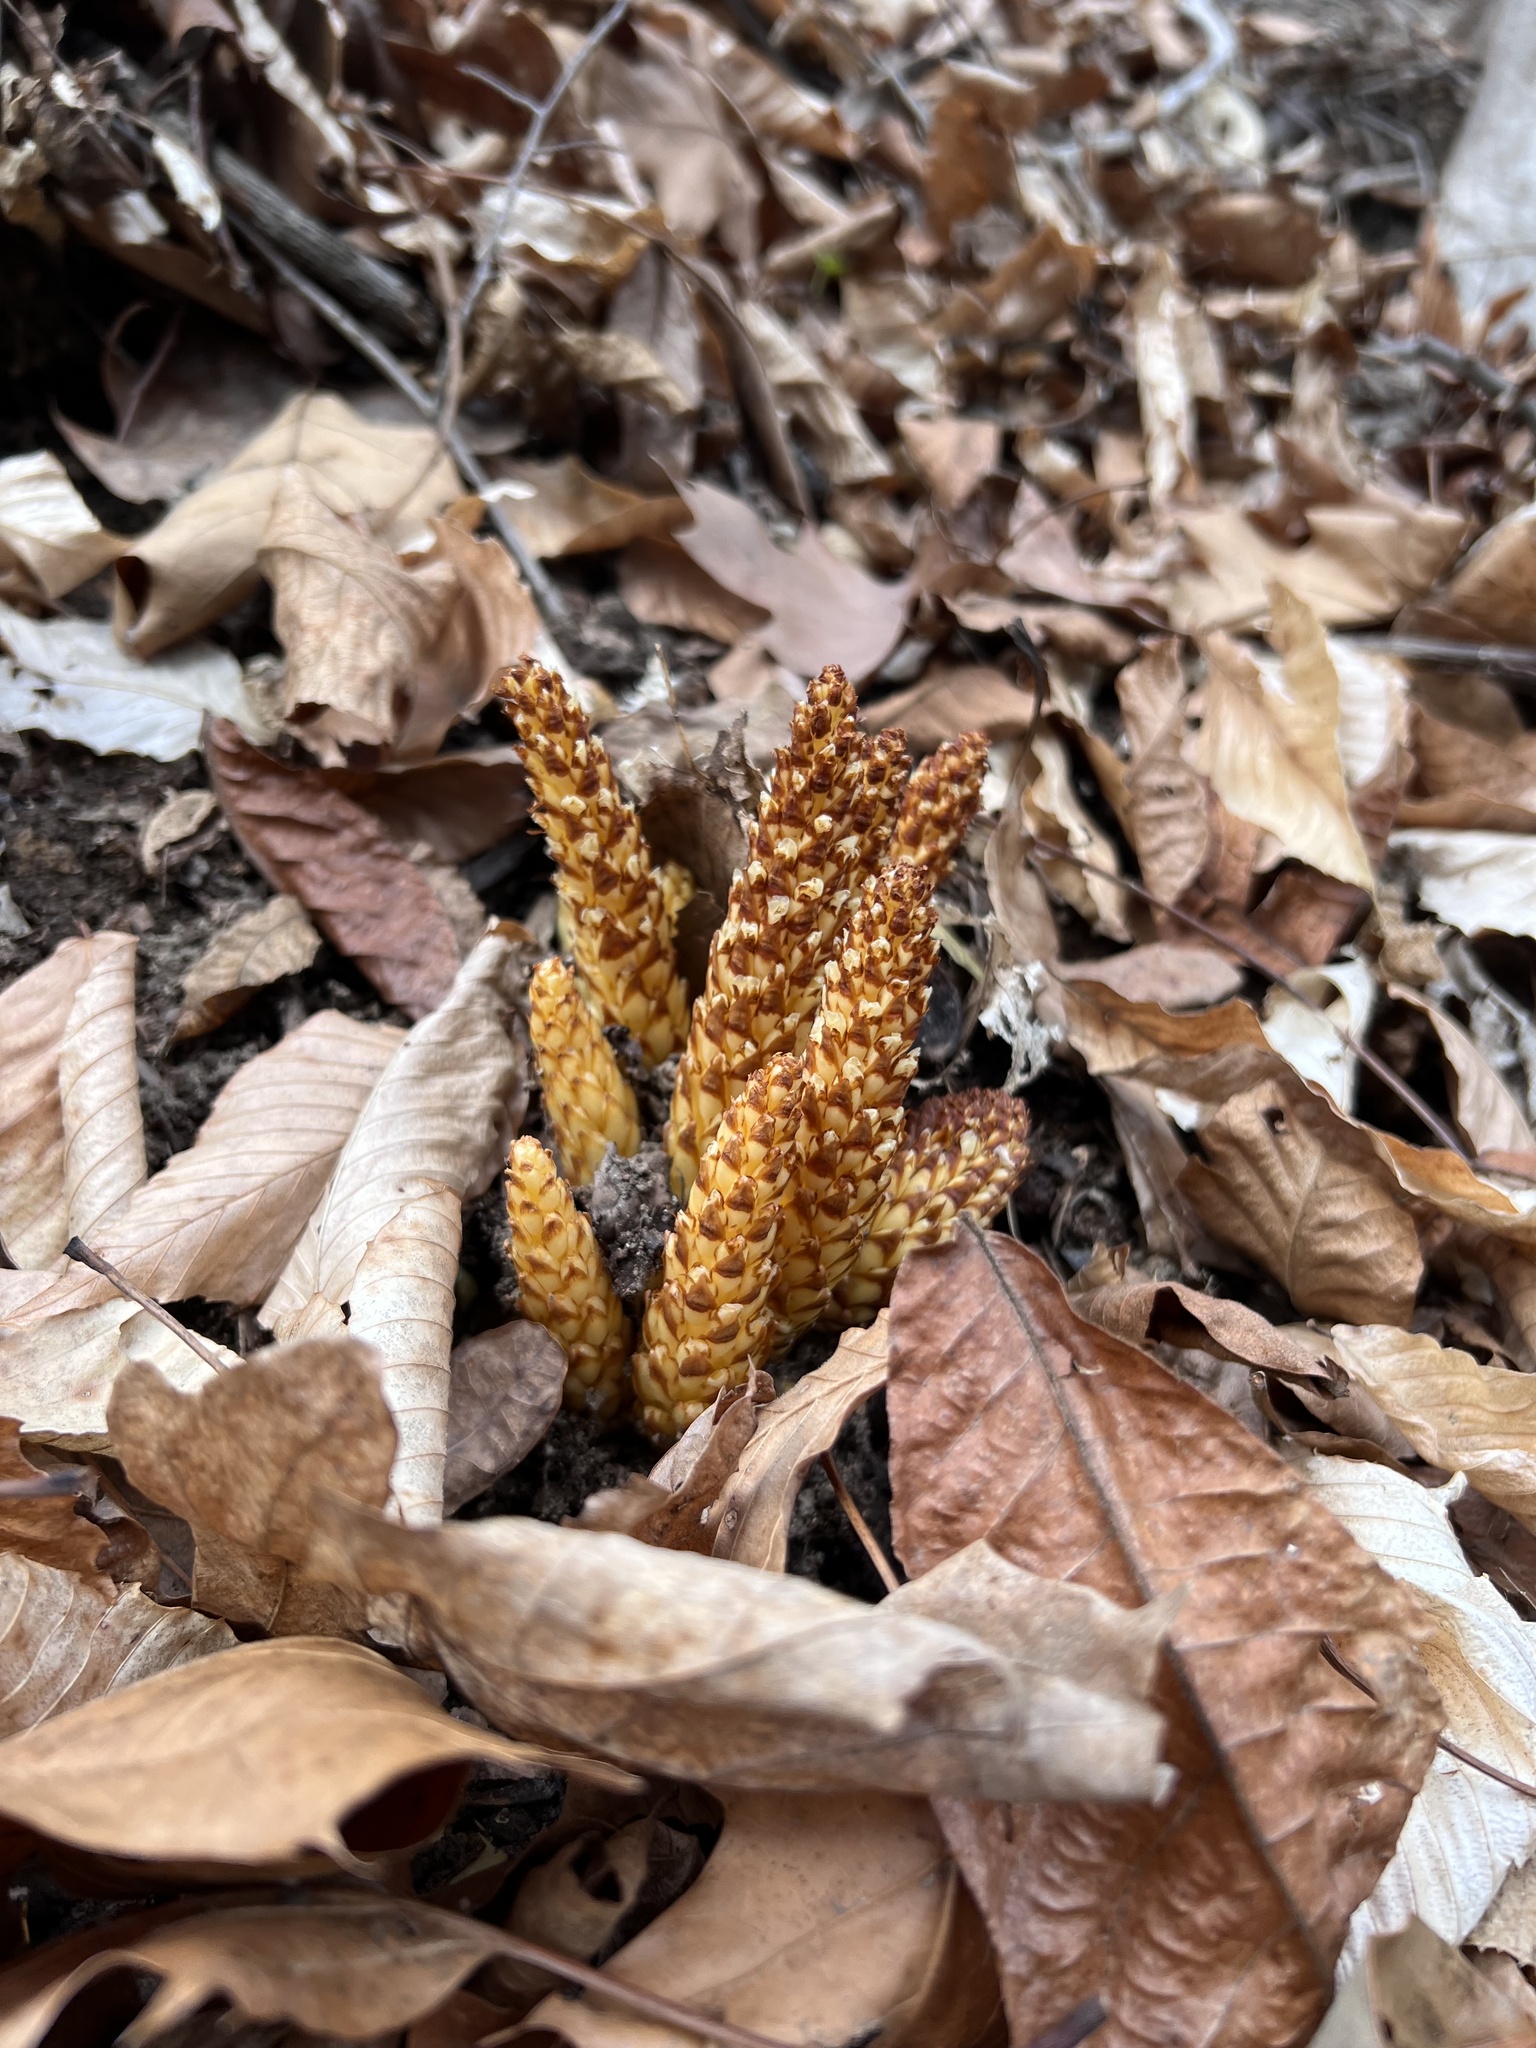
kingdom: Plantae
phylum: Tracheophyta
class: Magnoliopsida
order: Lamiales
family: Orobanchaceae
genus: Conopholis
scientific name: Conopholis americana
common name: American cancer-root
